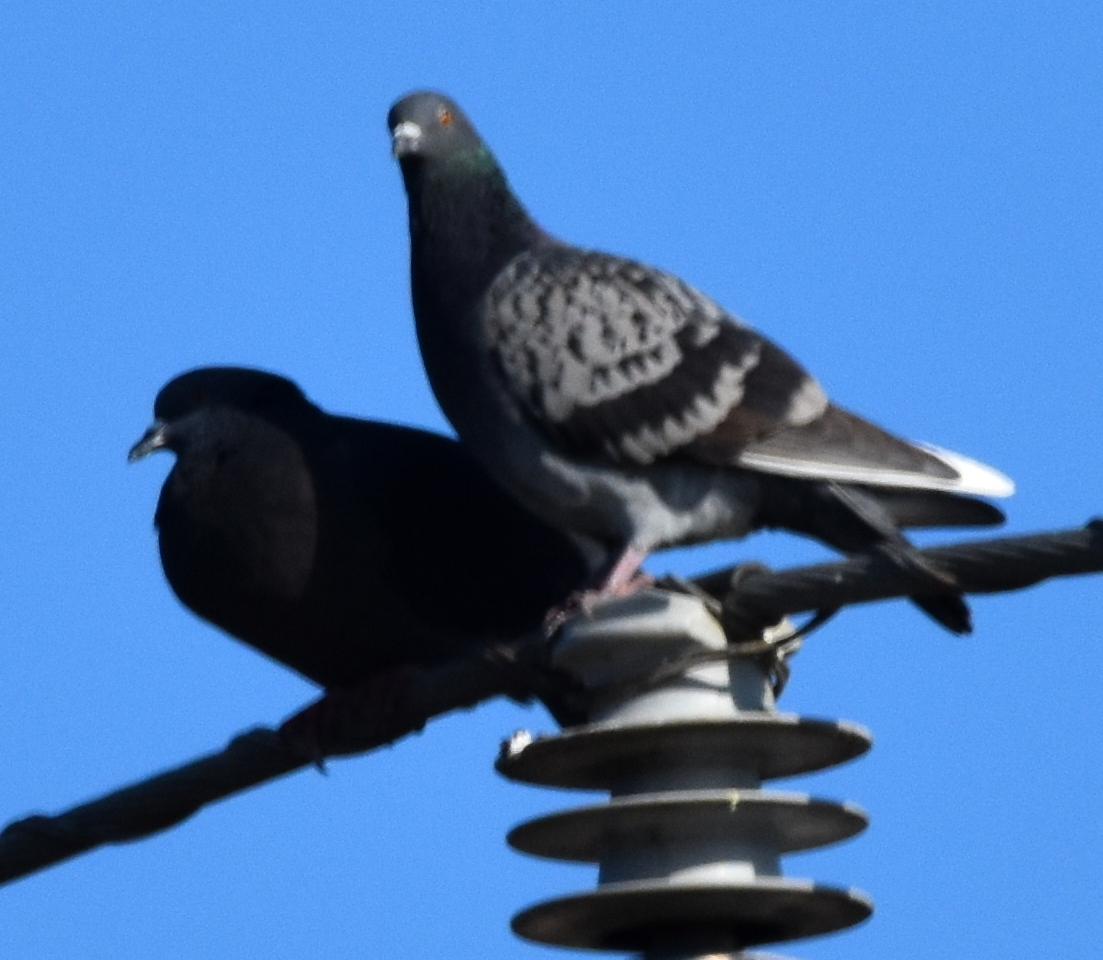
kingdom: Animalia
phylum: Chordata
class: Aves
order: Columbiformes
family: Columbidae
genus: Columba
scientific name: Columba livia
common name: Rock pigeon
